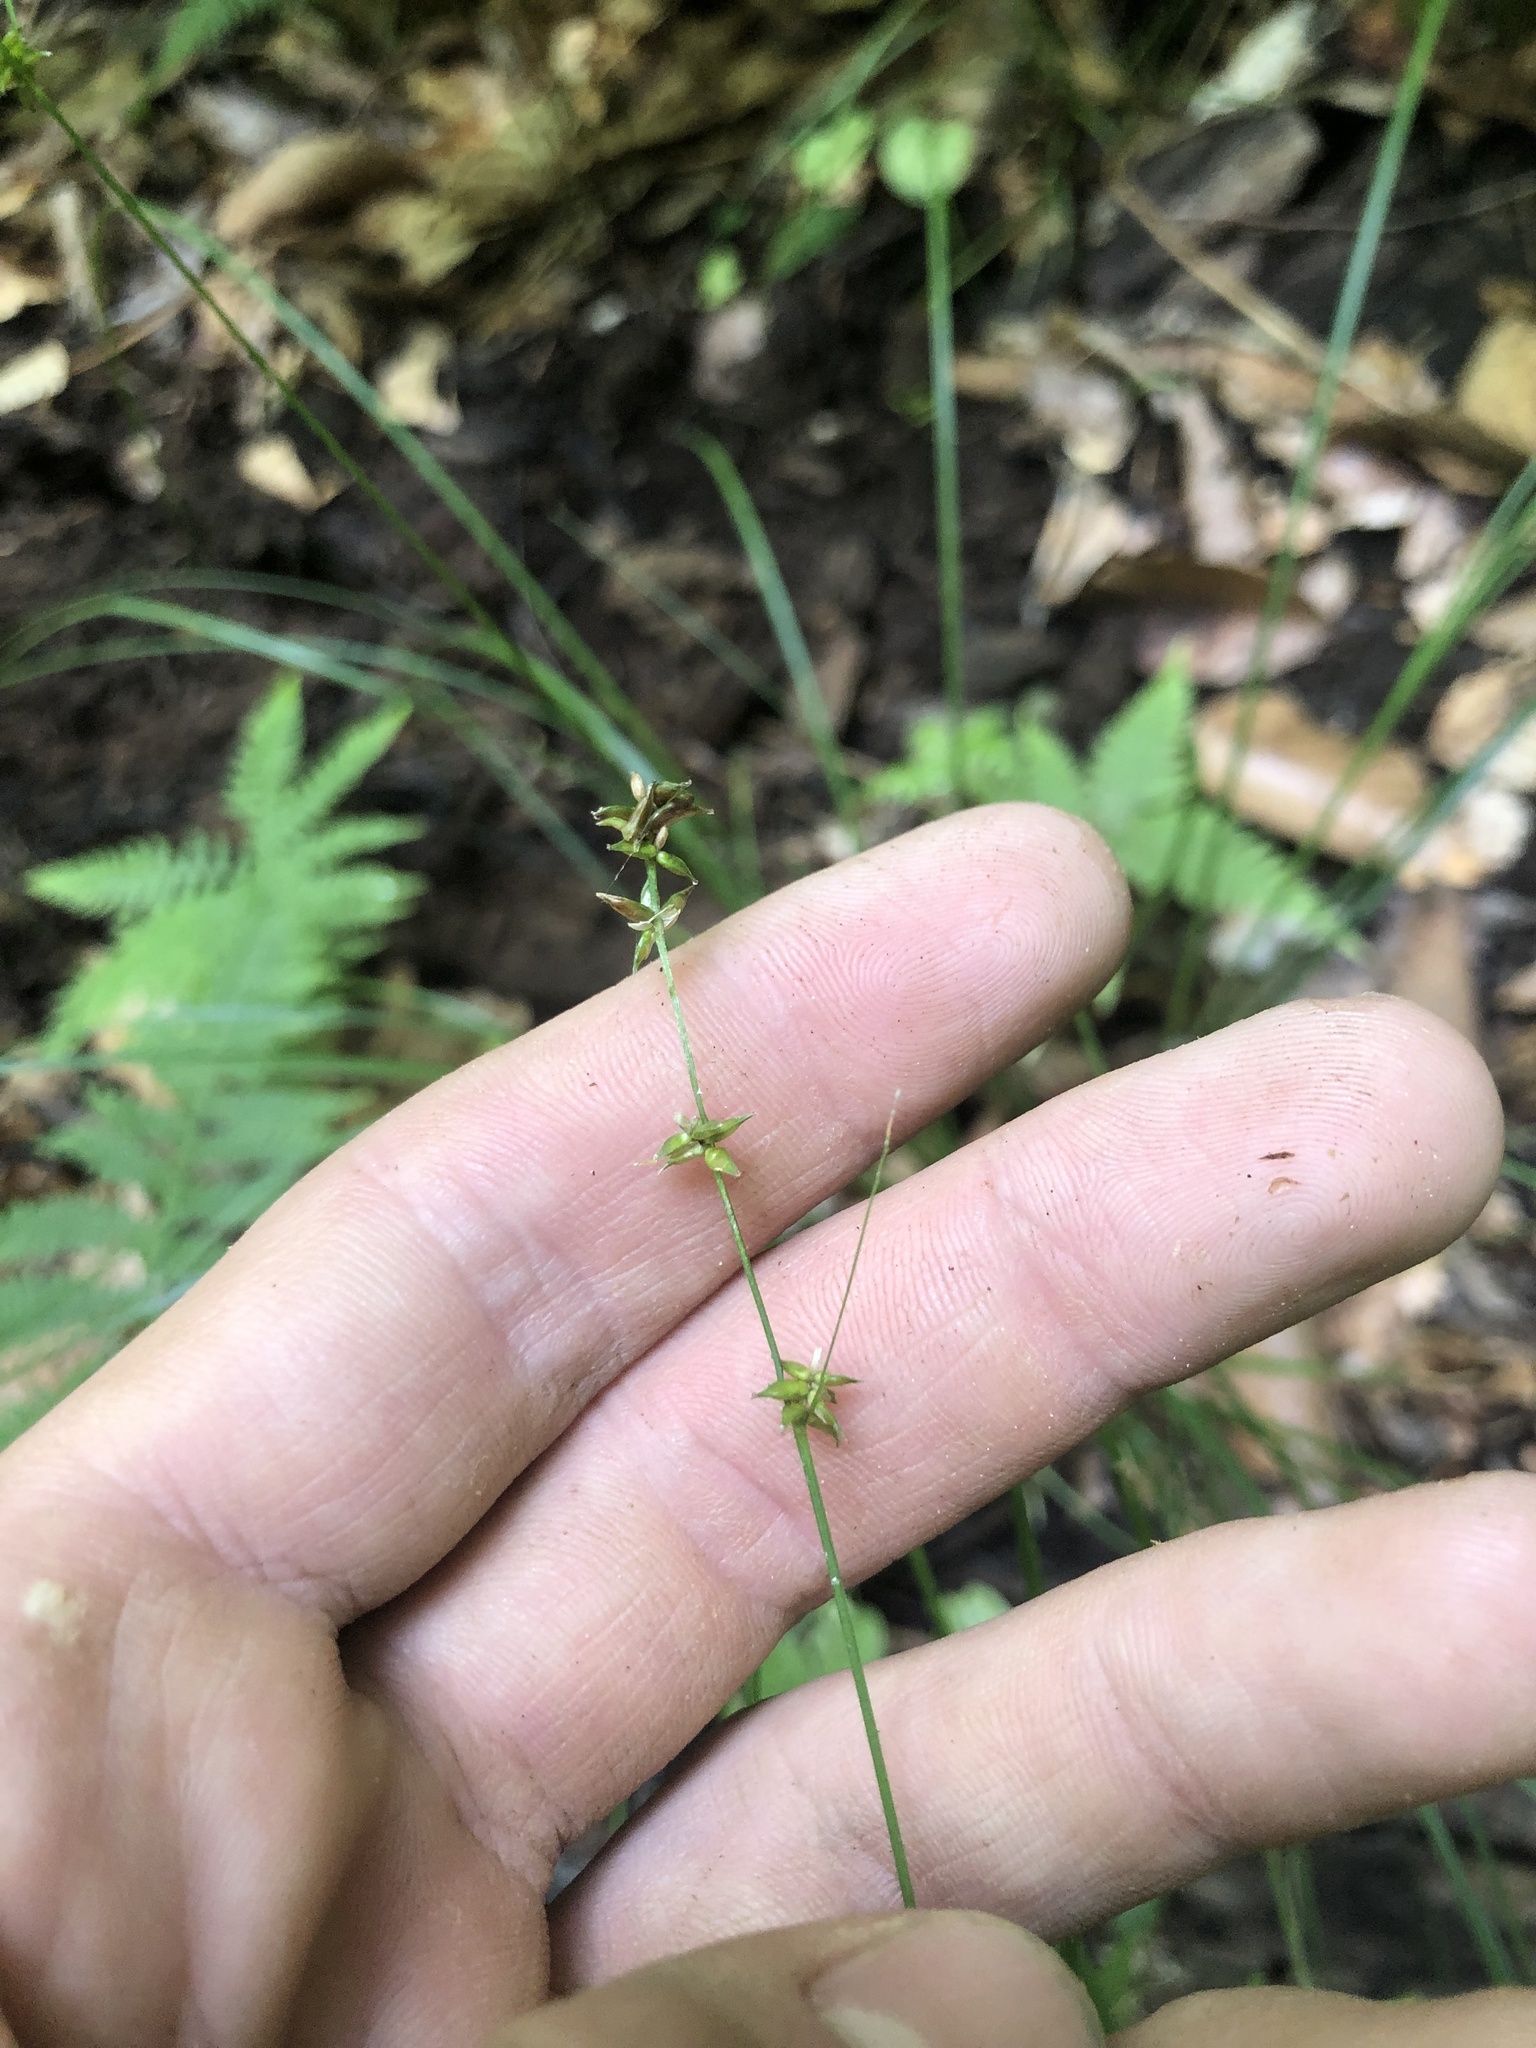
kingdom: Plantae
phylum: Tracheophyta
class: Liliopsida
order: Poales
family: Cyperaceae
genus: Carex
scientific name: Carex rosea
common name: Curly-styled wood sedge
